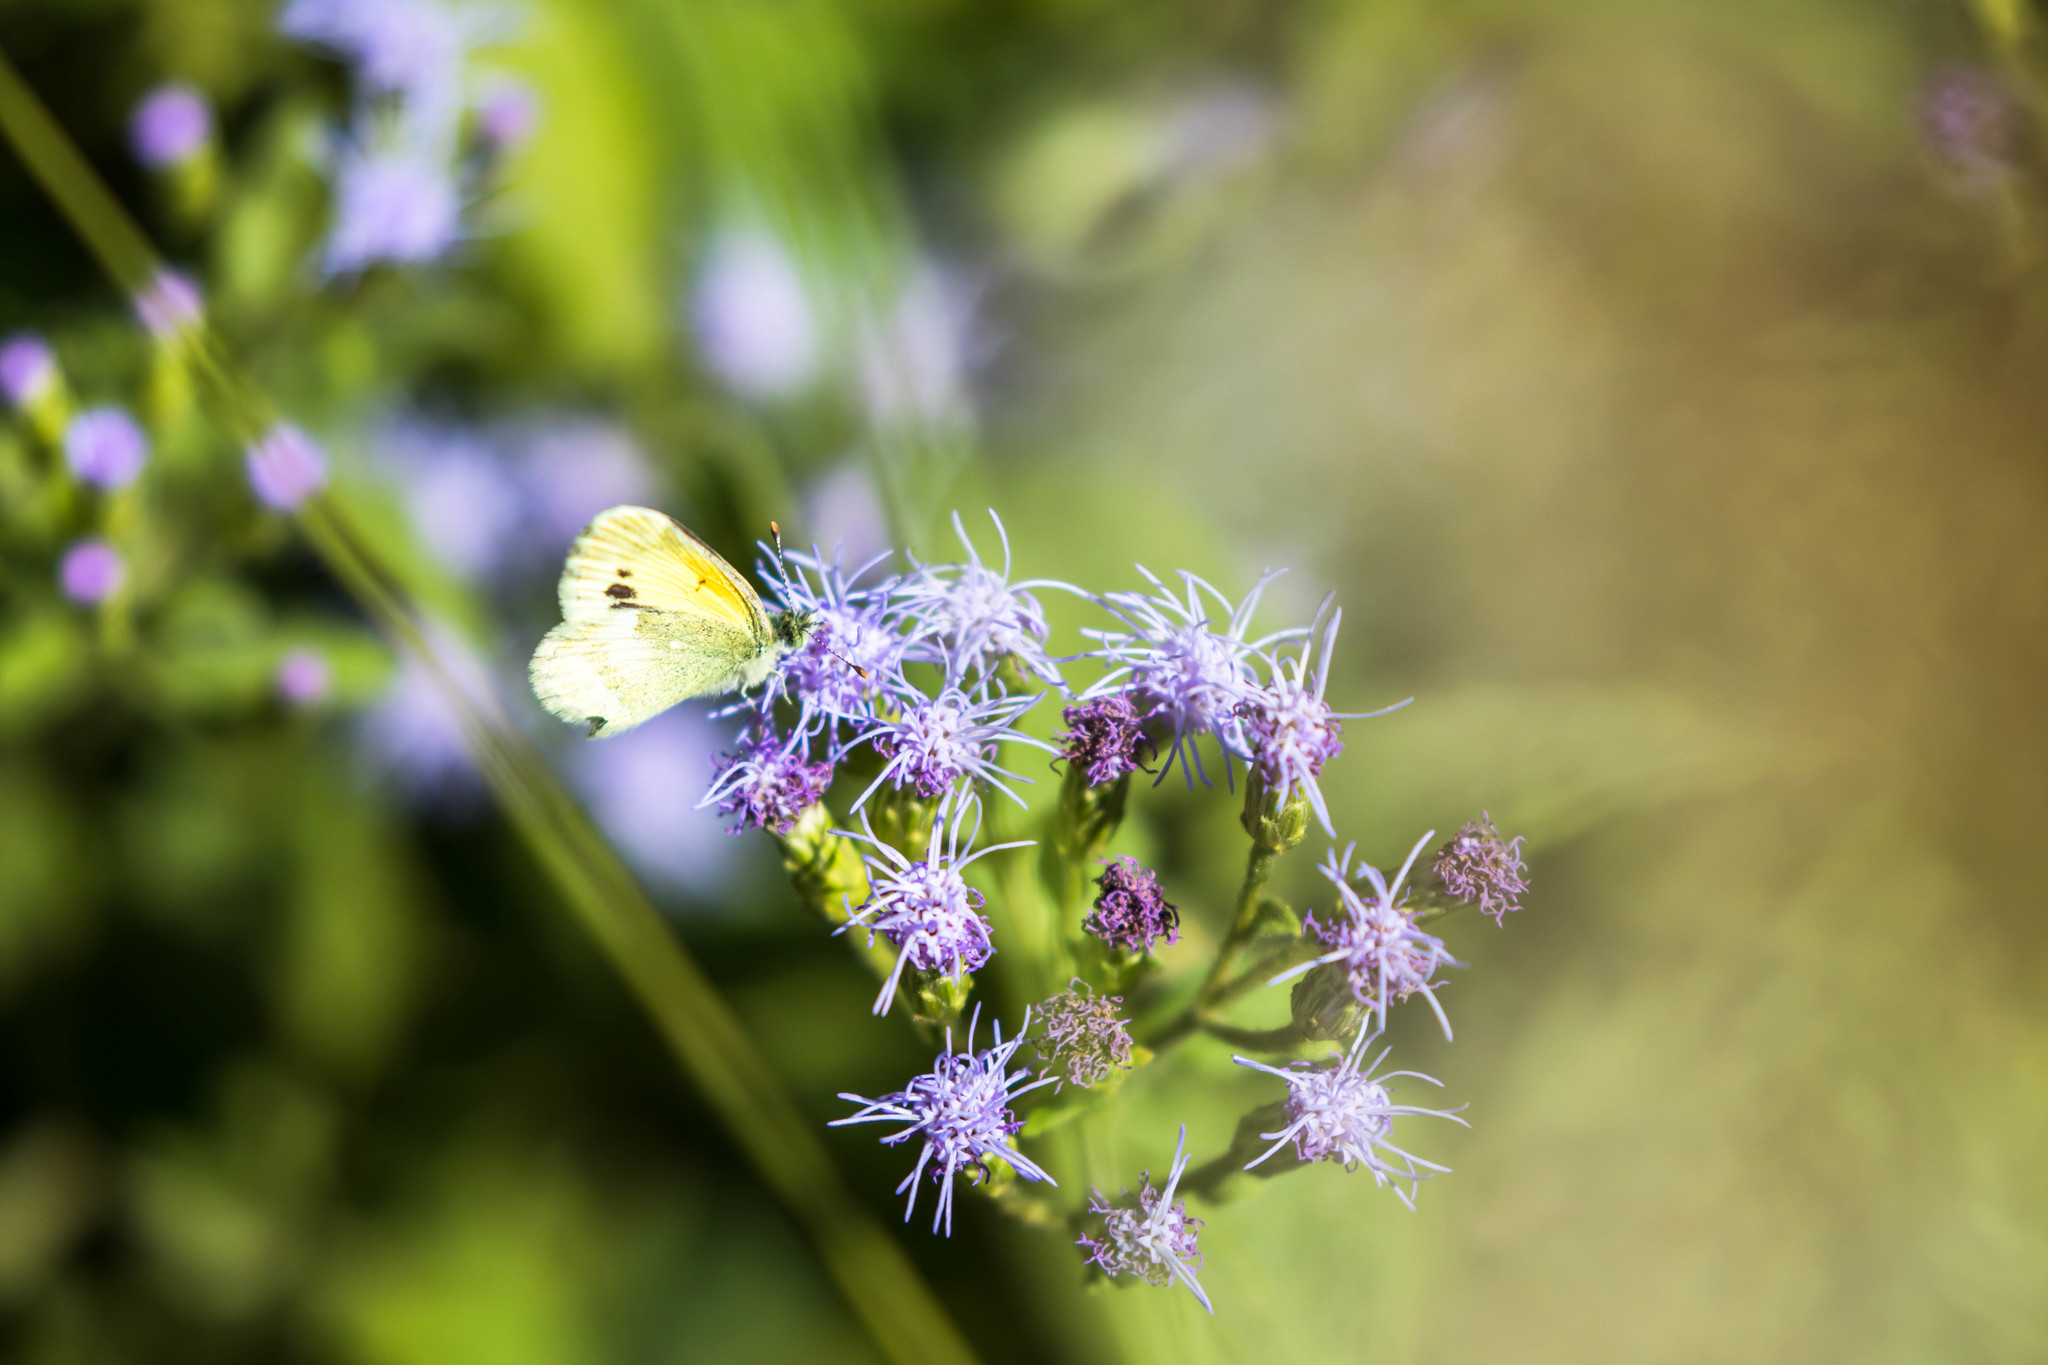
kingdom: Animalia
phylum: Arthropoda
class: Insecta
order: Lepidoptera
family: Pieridae
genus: Nathalis
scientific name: Nathalis iole
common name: Dainty sulphur
